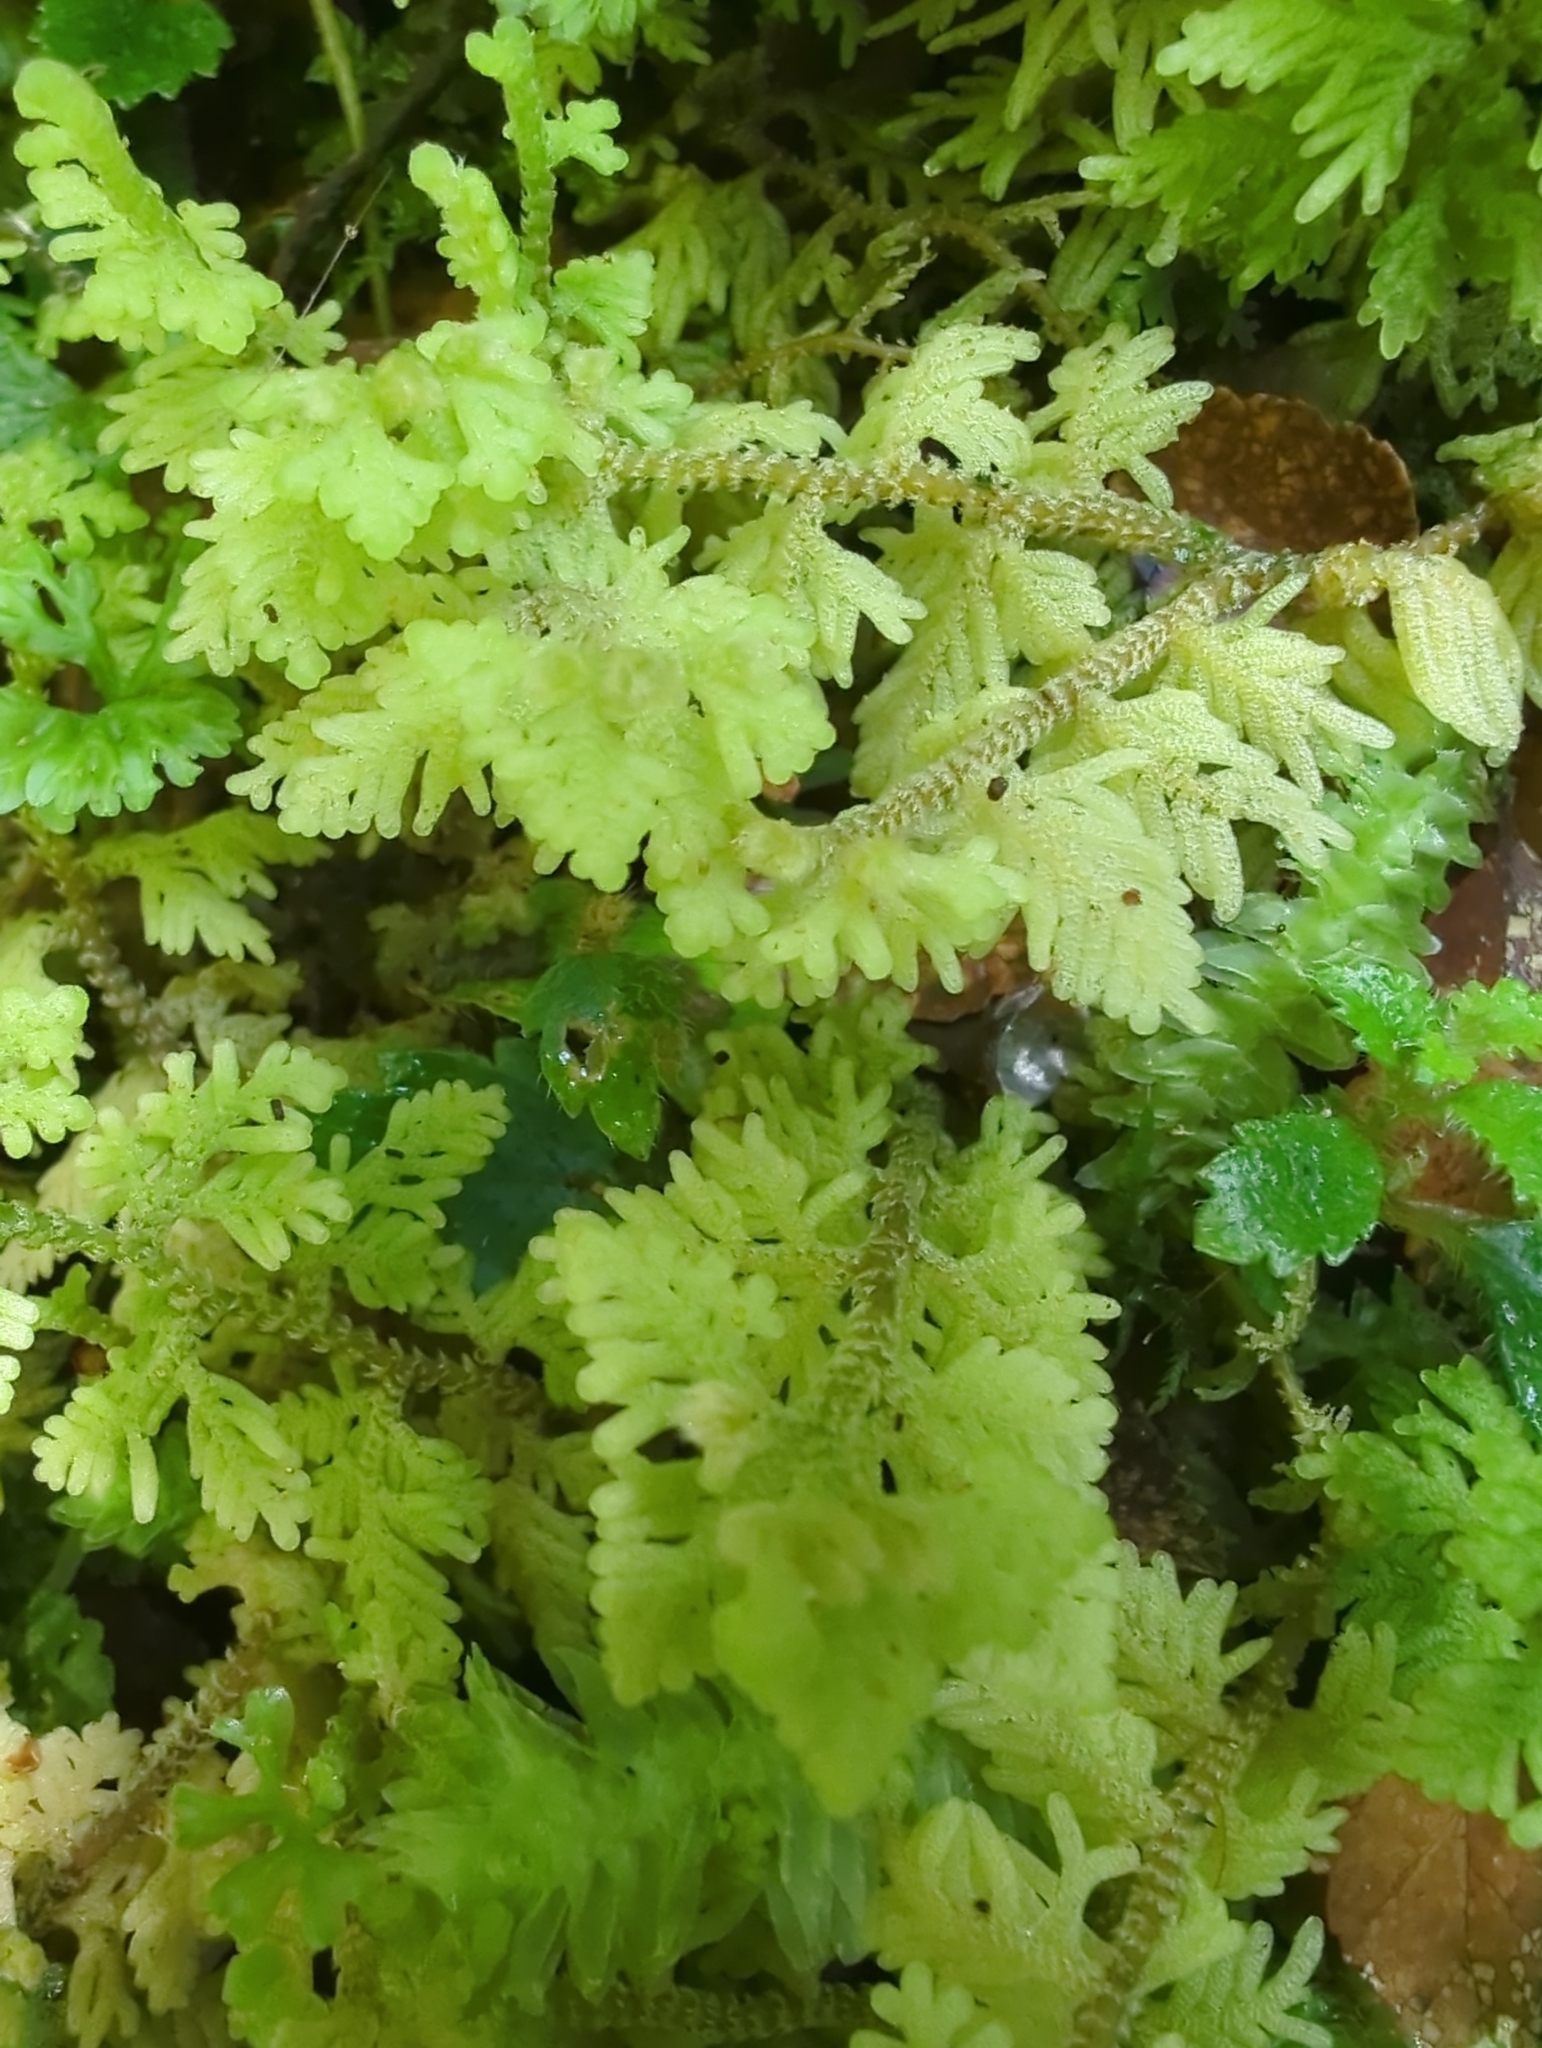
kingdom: Plantae
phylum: Marchantiophyta
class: Jungermanniopsida
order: Jungermanniales
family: Trichocoleaceae
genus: Trichocolea
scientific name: Trichocolea mollissima
